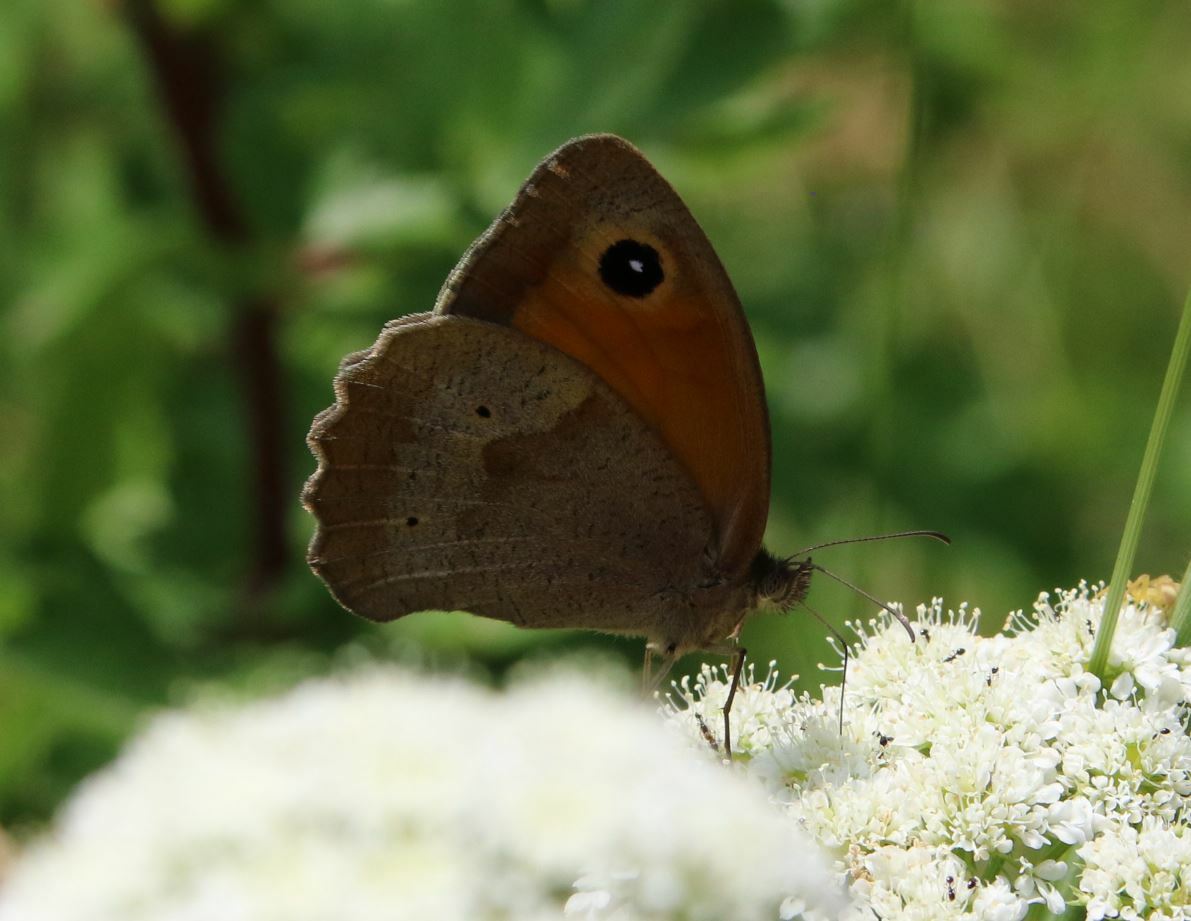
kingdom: Animalia
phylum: Arthropoda
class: Insecta
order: Lepidoptera
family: Nymphalidae
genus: Maniola
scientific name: Maniola jurtina
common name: Meadow brown
